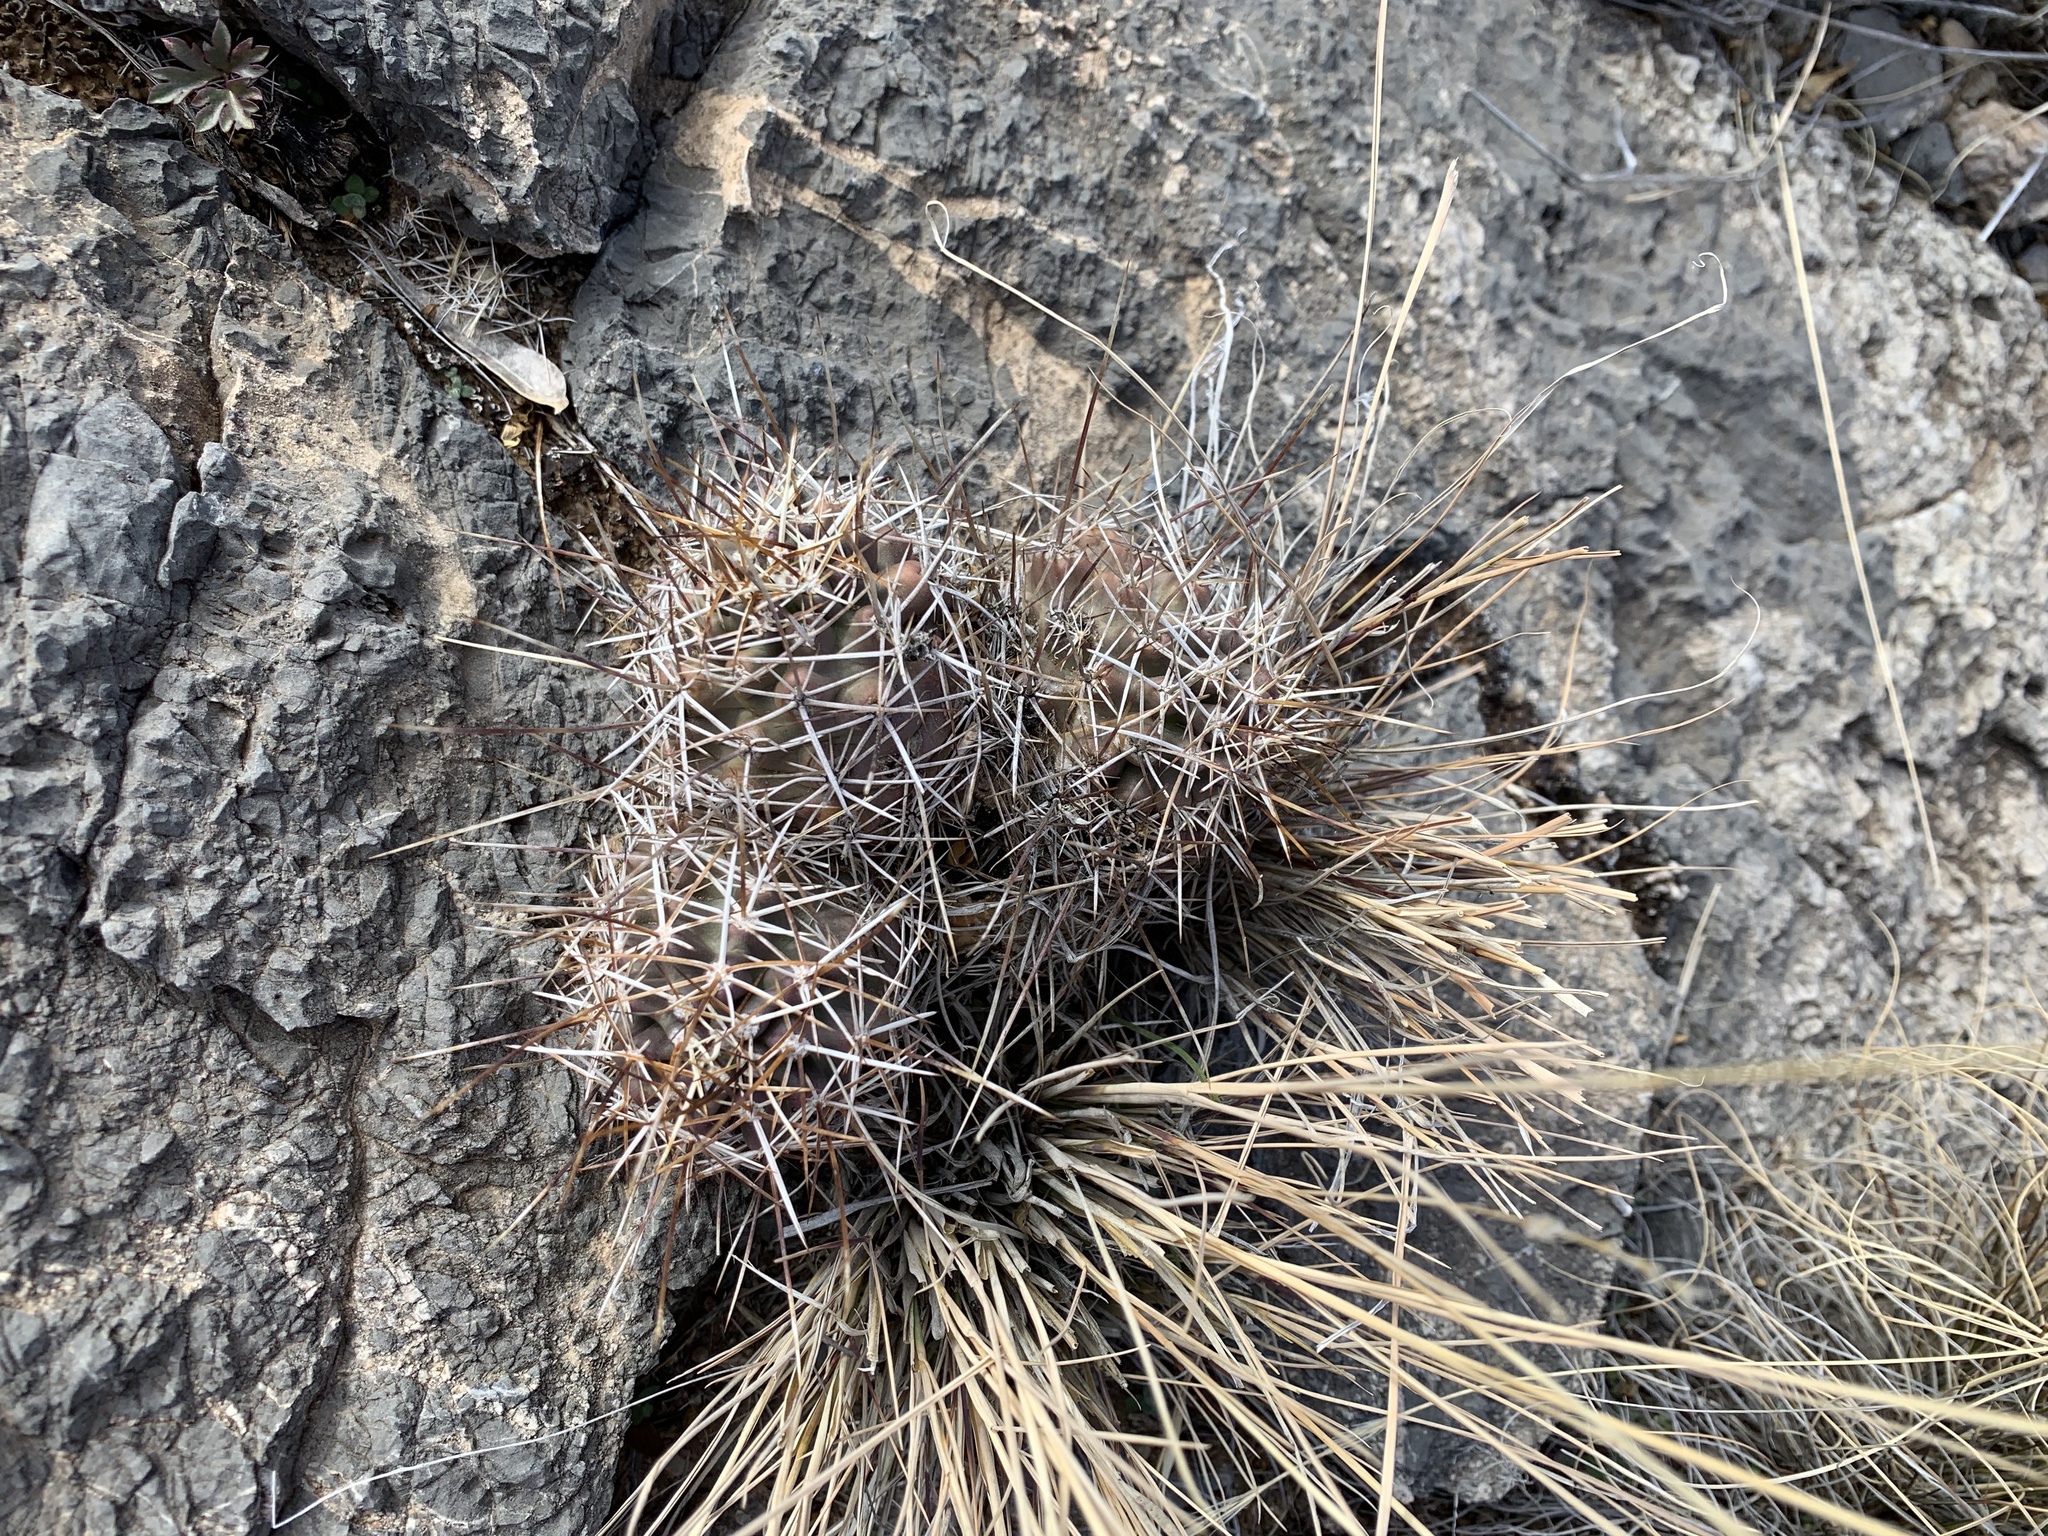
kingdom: Plantae
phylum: Tracheophyta
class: Magnoliopsida
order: Caryophyllales
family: Cactaceae
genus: Echinocereus
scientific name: Echinocereus fendleri
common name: Fendler's hedgehog cactus
